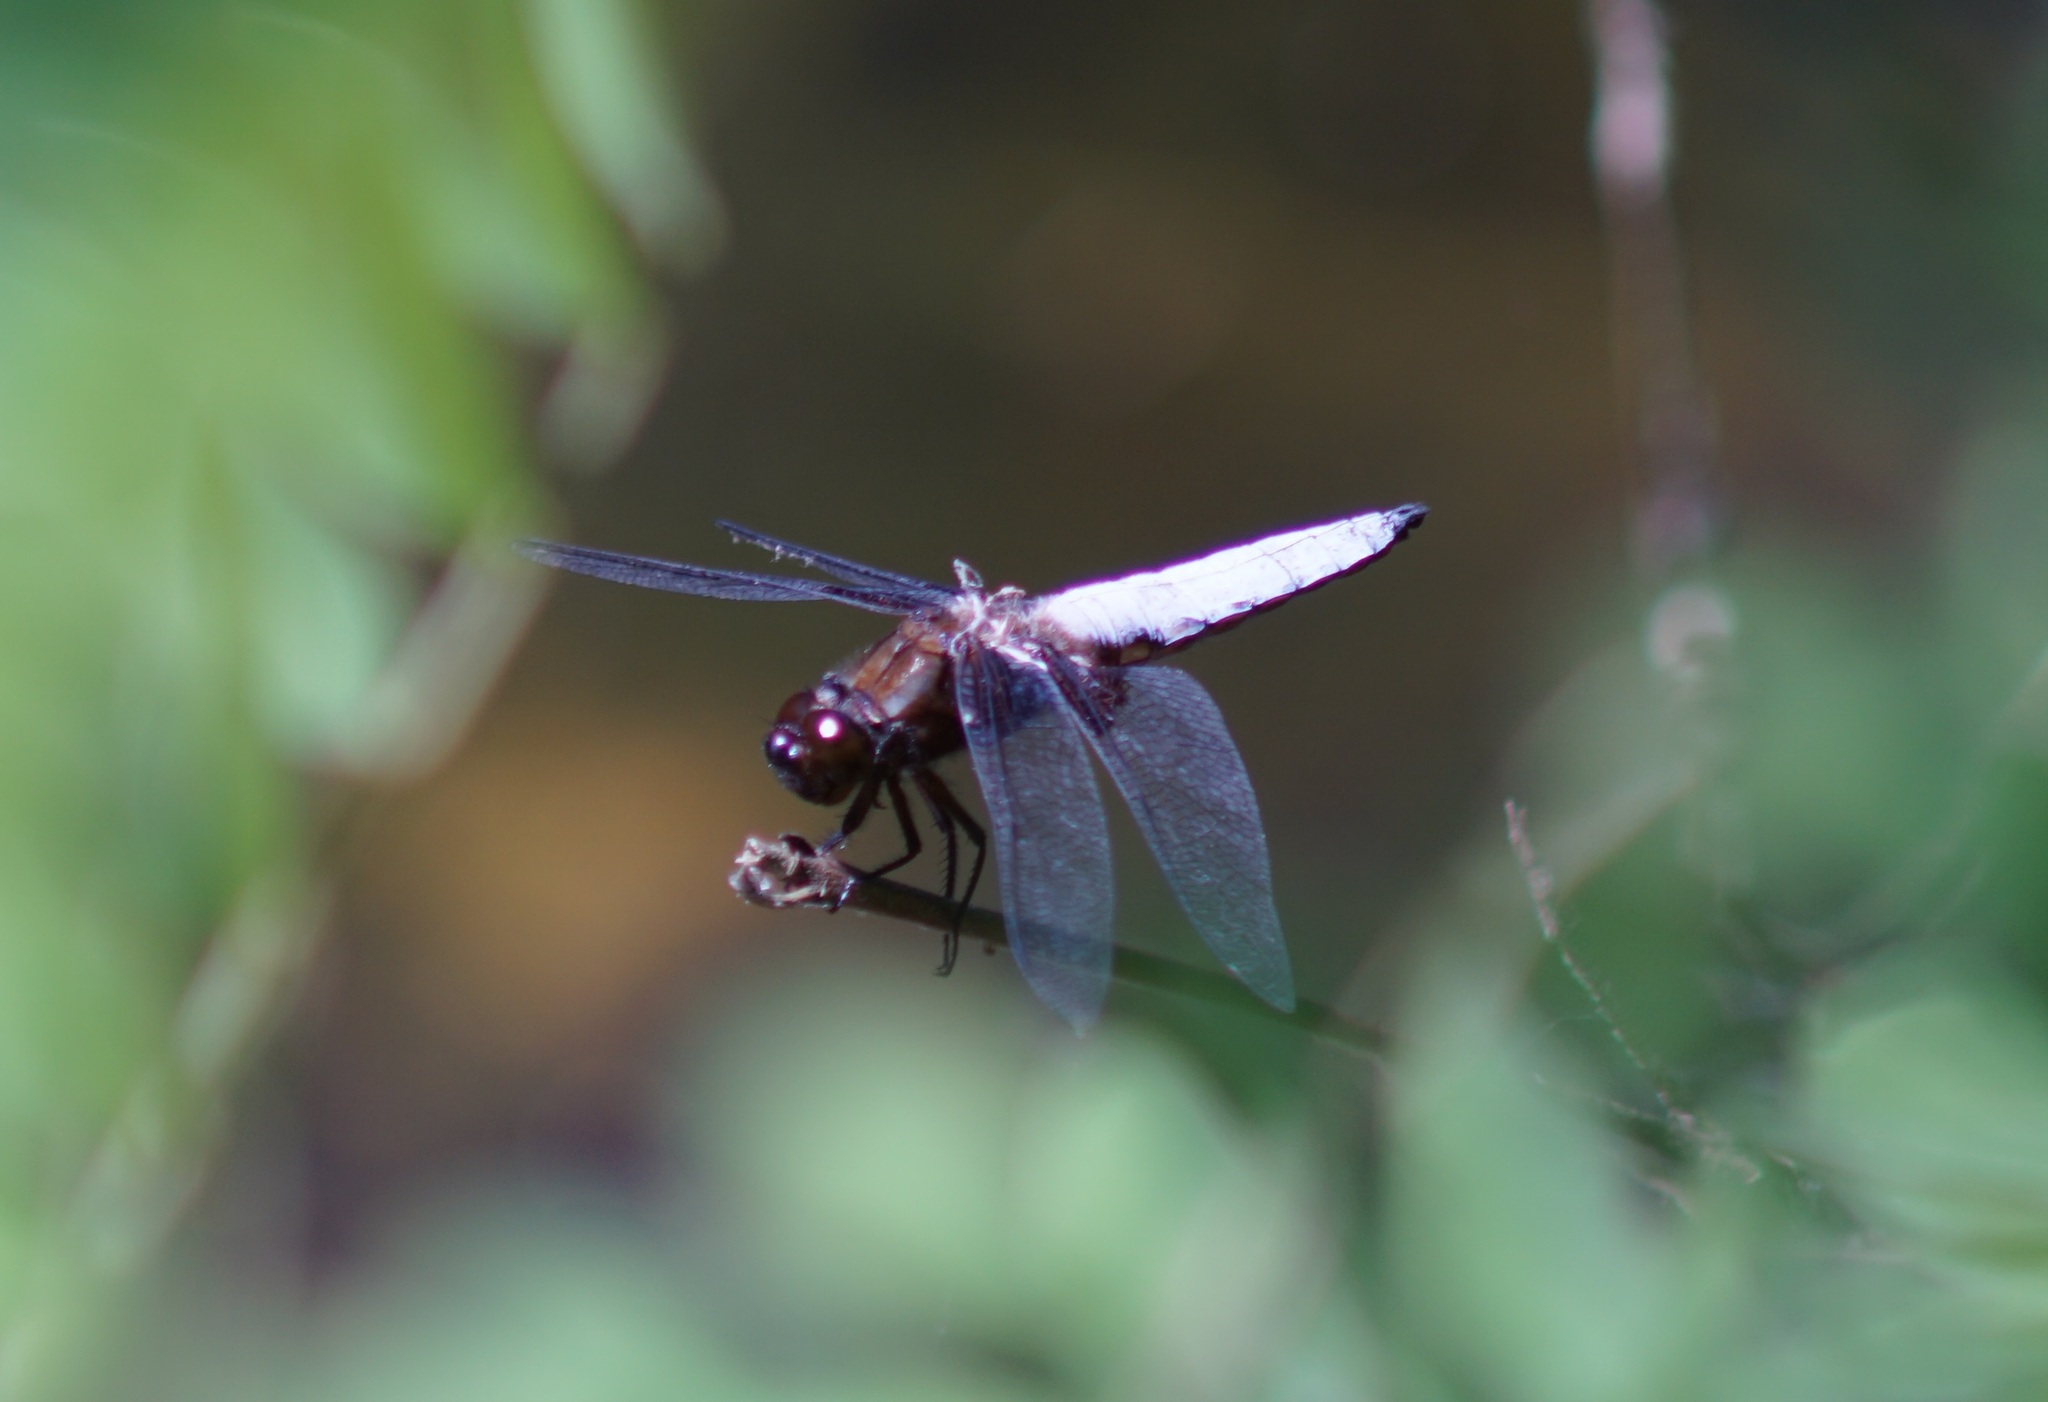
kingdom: Animalia
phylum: Arthropoda
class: Insecta
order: Odonata
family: Libellulidae
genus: Libellula
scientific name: Libellula depressa
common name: Broad-bodied chaser
